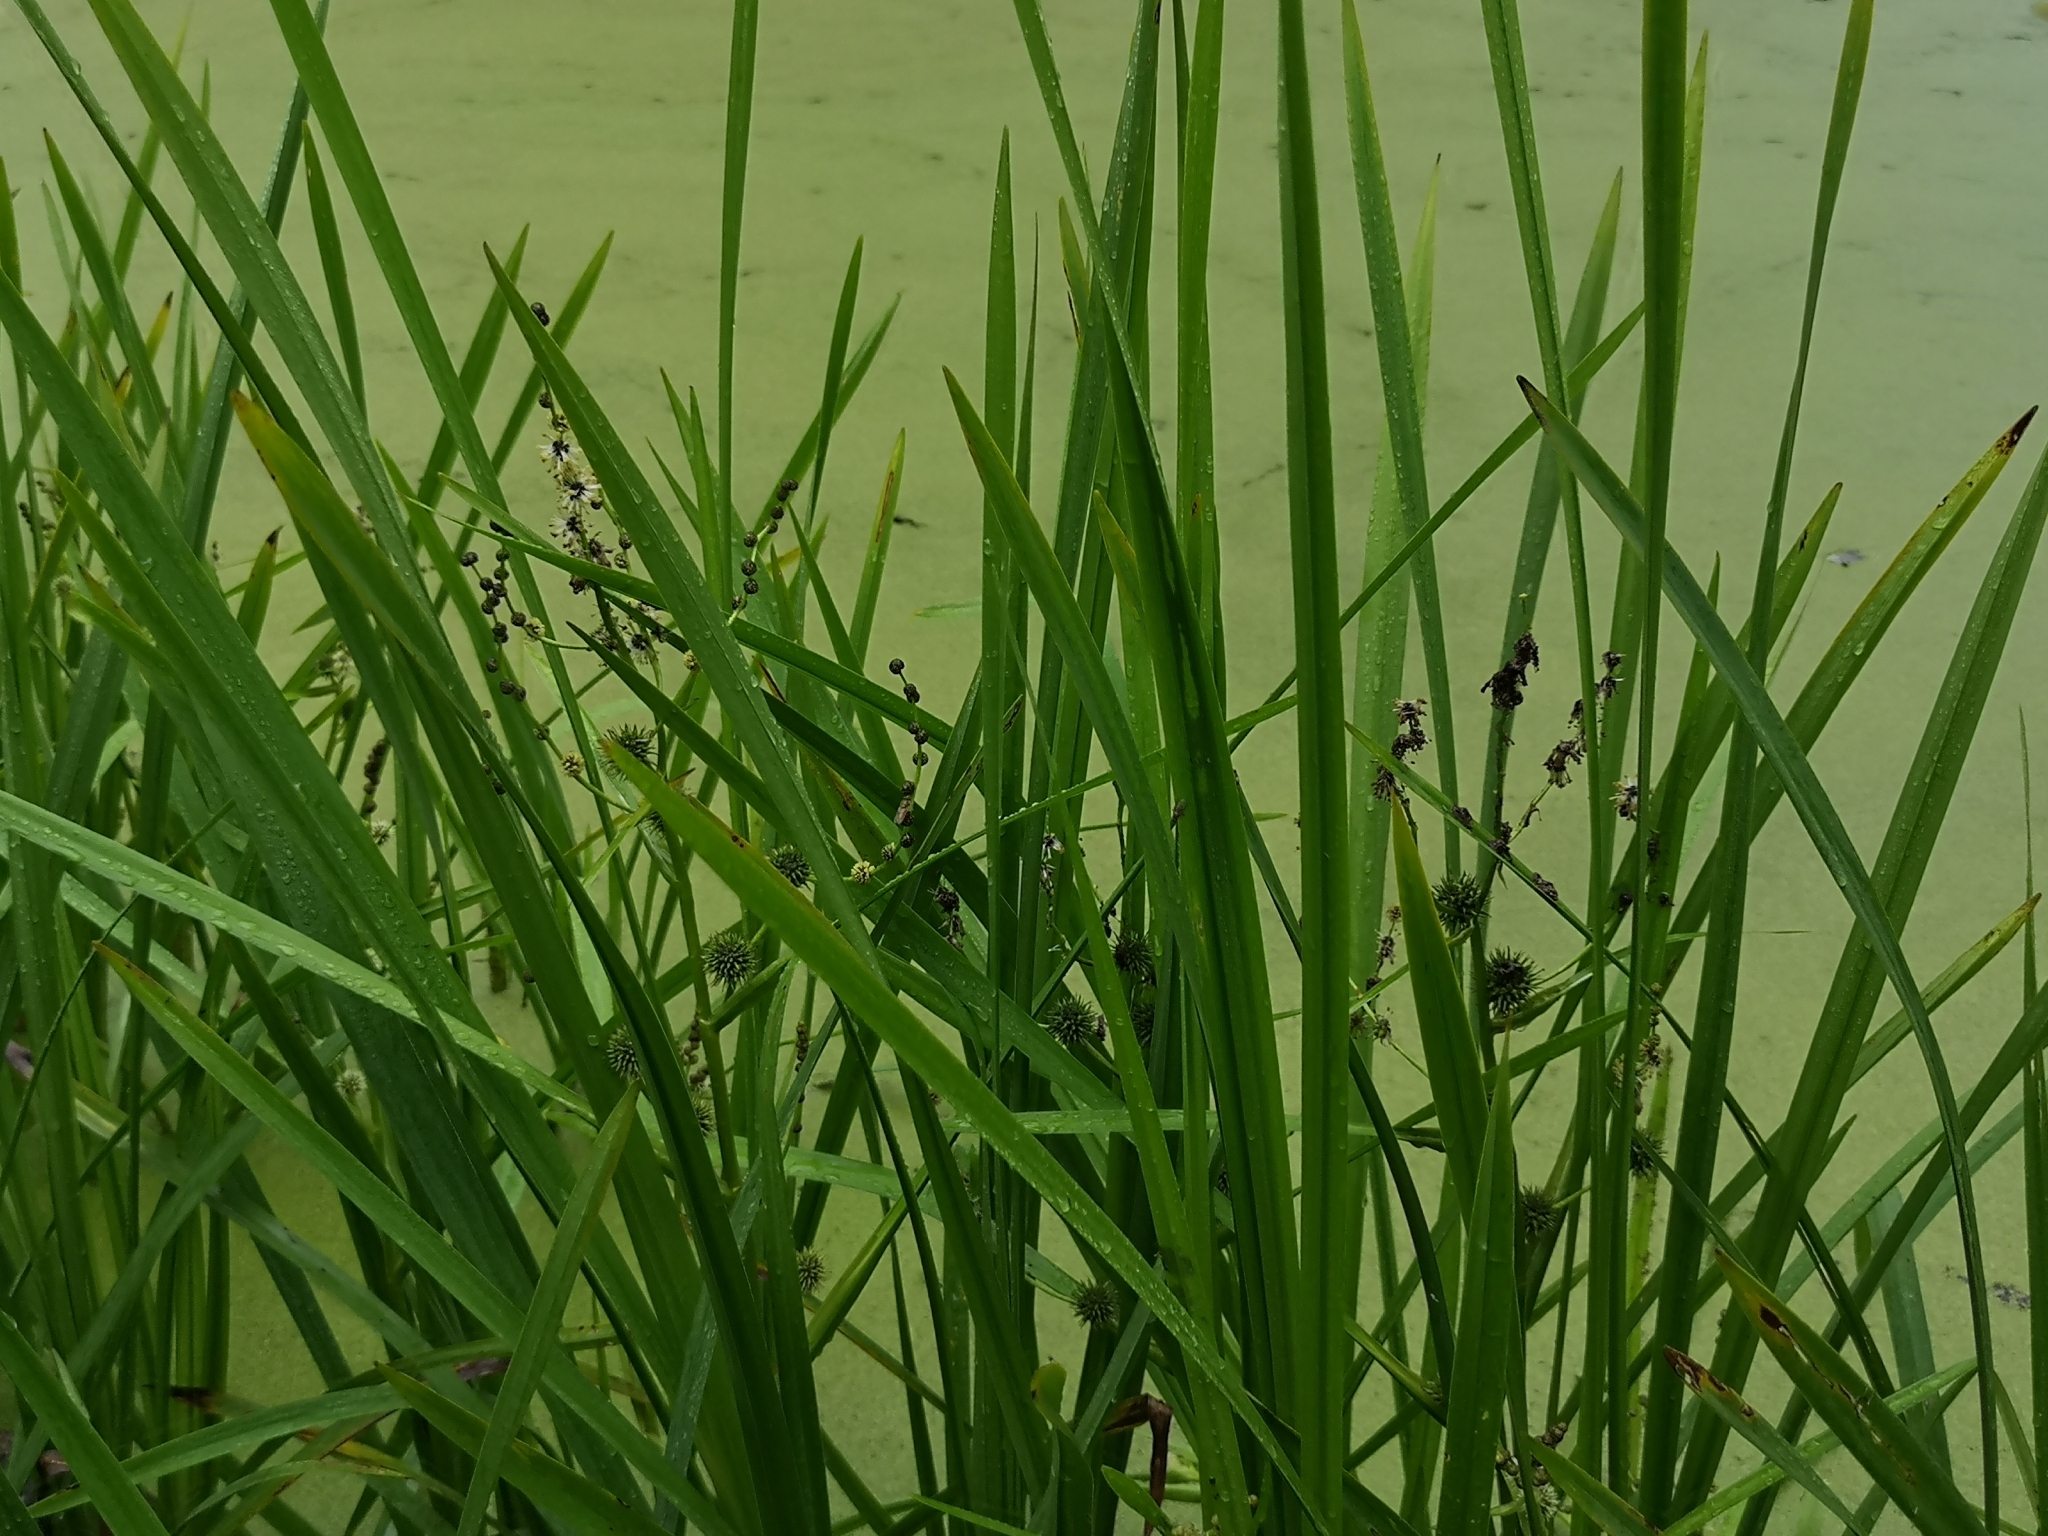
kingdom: Plantae
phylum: Tracheophyta
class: Liliopsida
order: Poales
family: Typhaceae
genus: Sparganium
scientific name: Sparganium erectum
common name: Branched bur-reed
